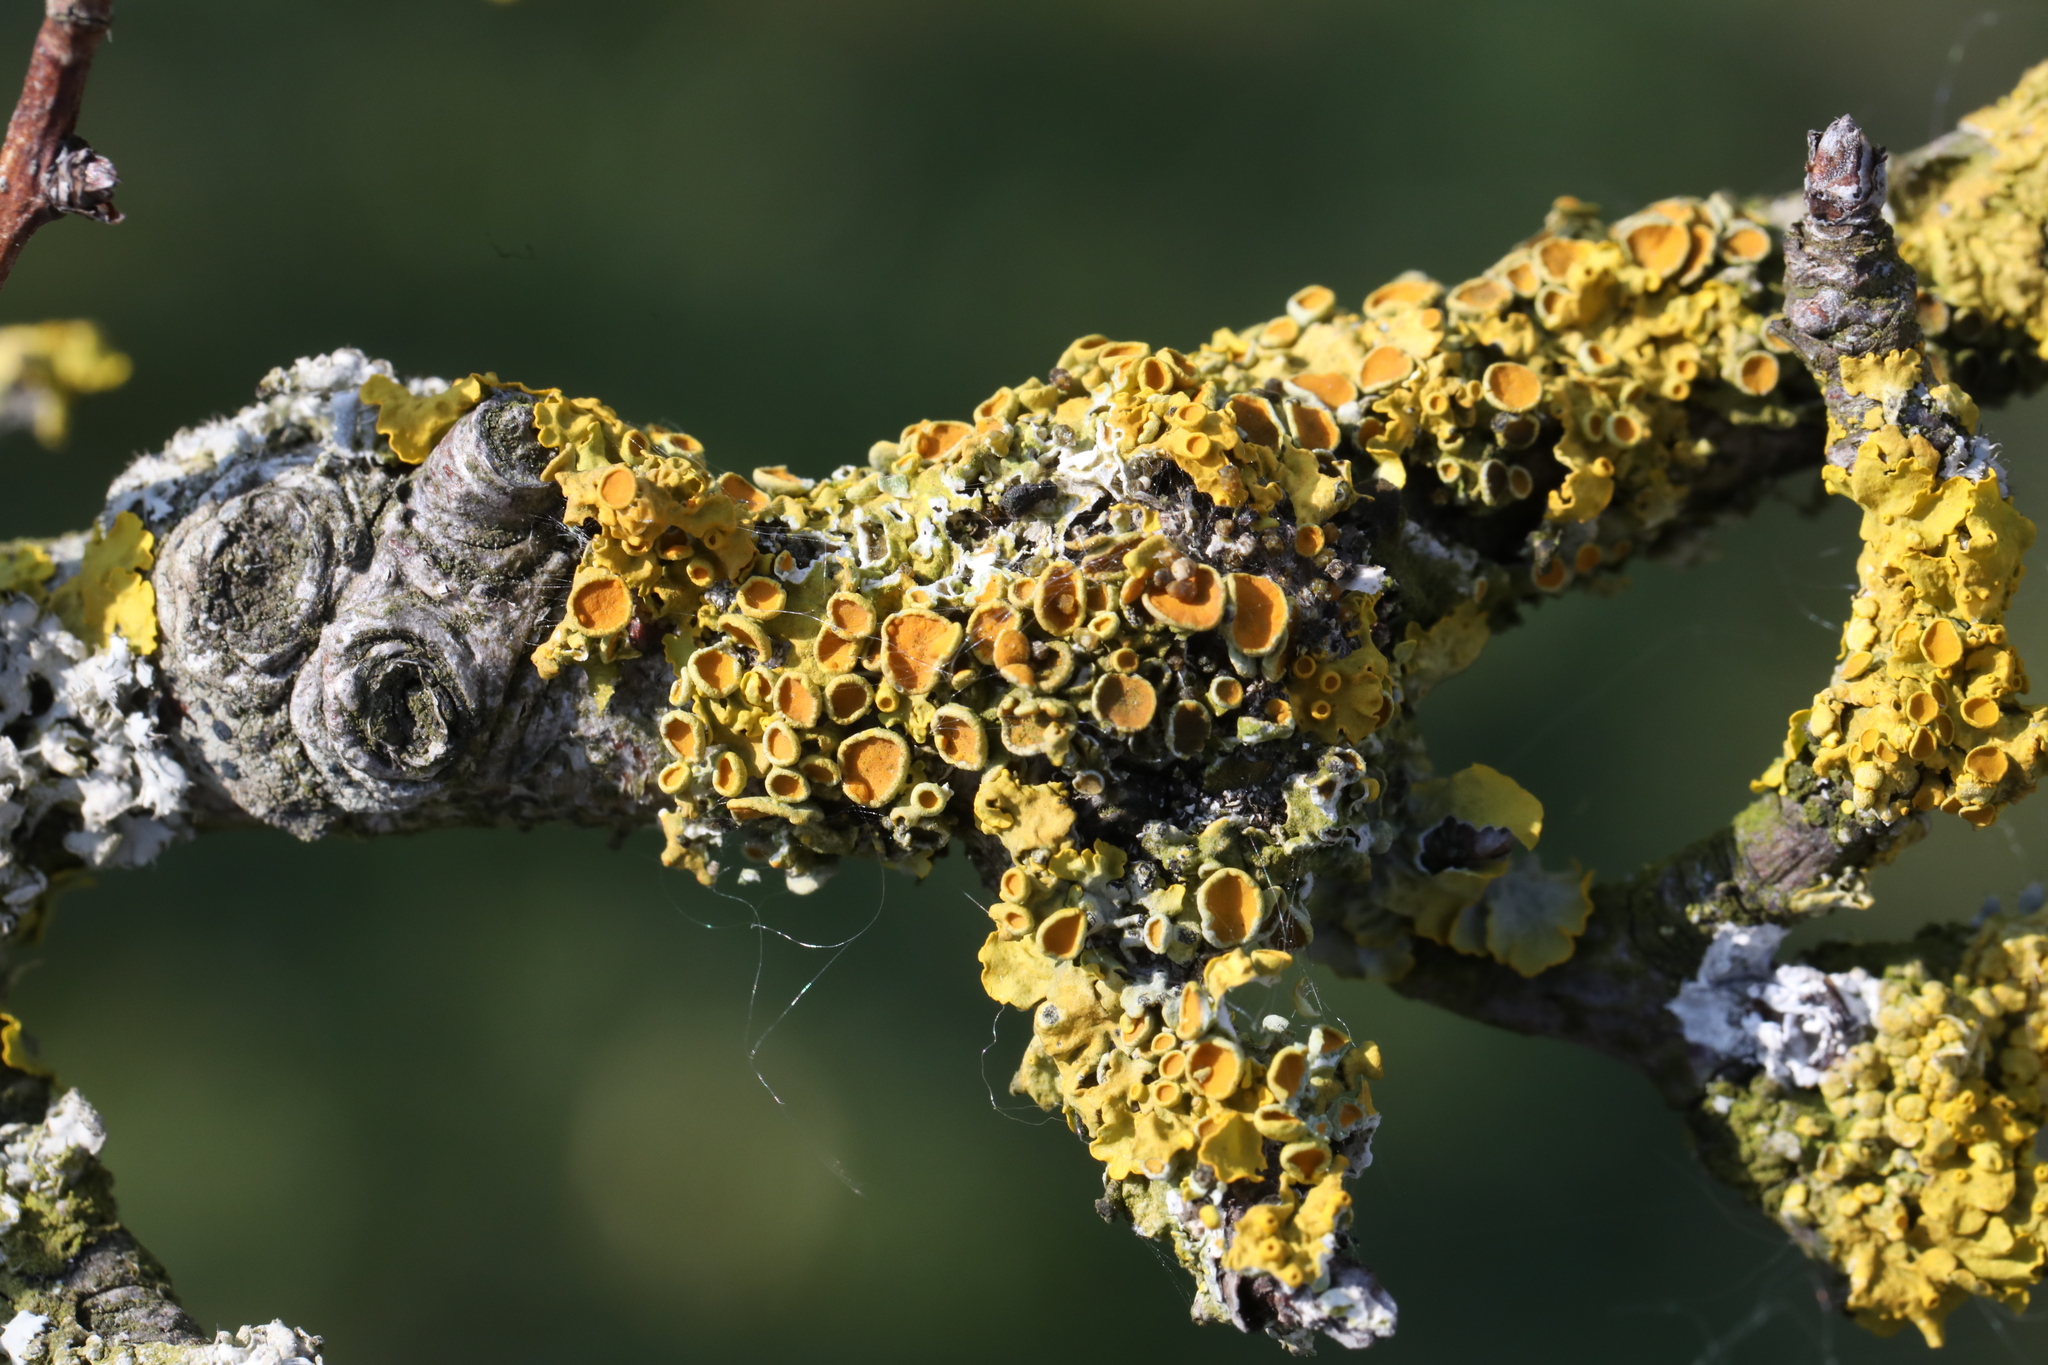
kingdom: Fungi
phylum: Ascomycota
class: Lecanoromycetes
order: Teloschistales
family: Teloschistaceae
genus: Xanthoria
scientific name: Xanthoria parietina
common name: Common orange lichen
